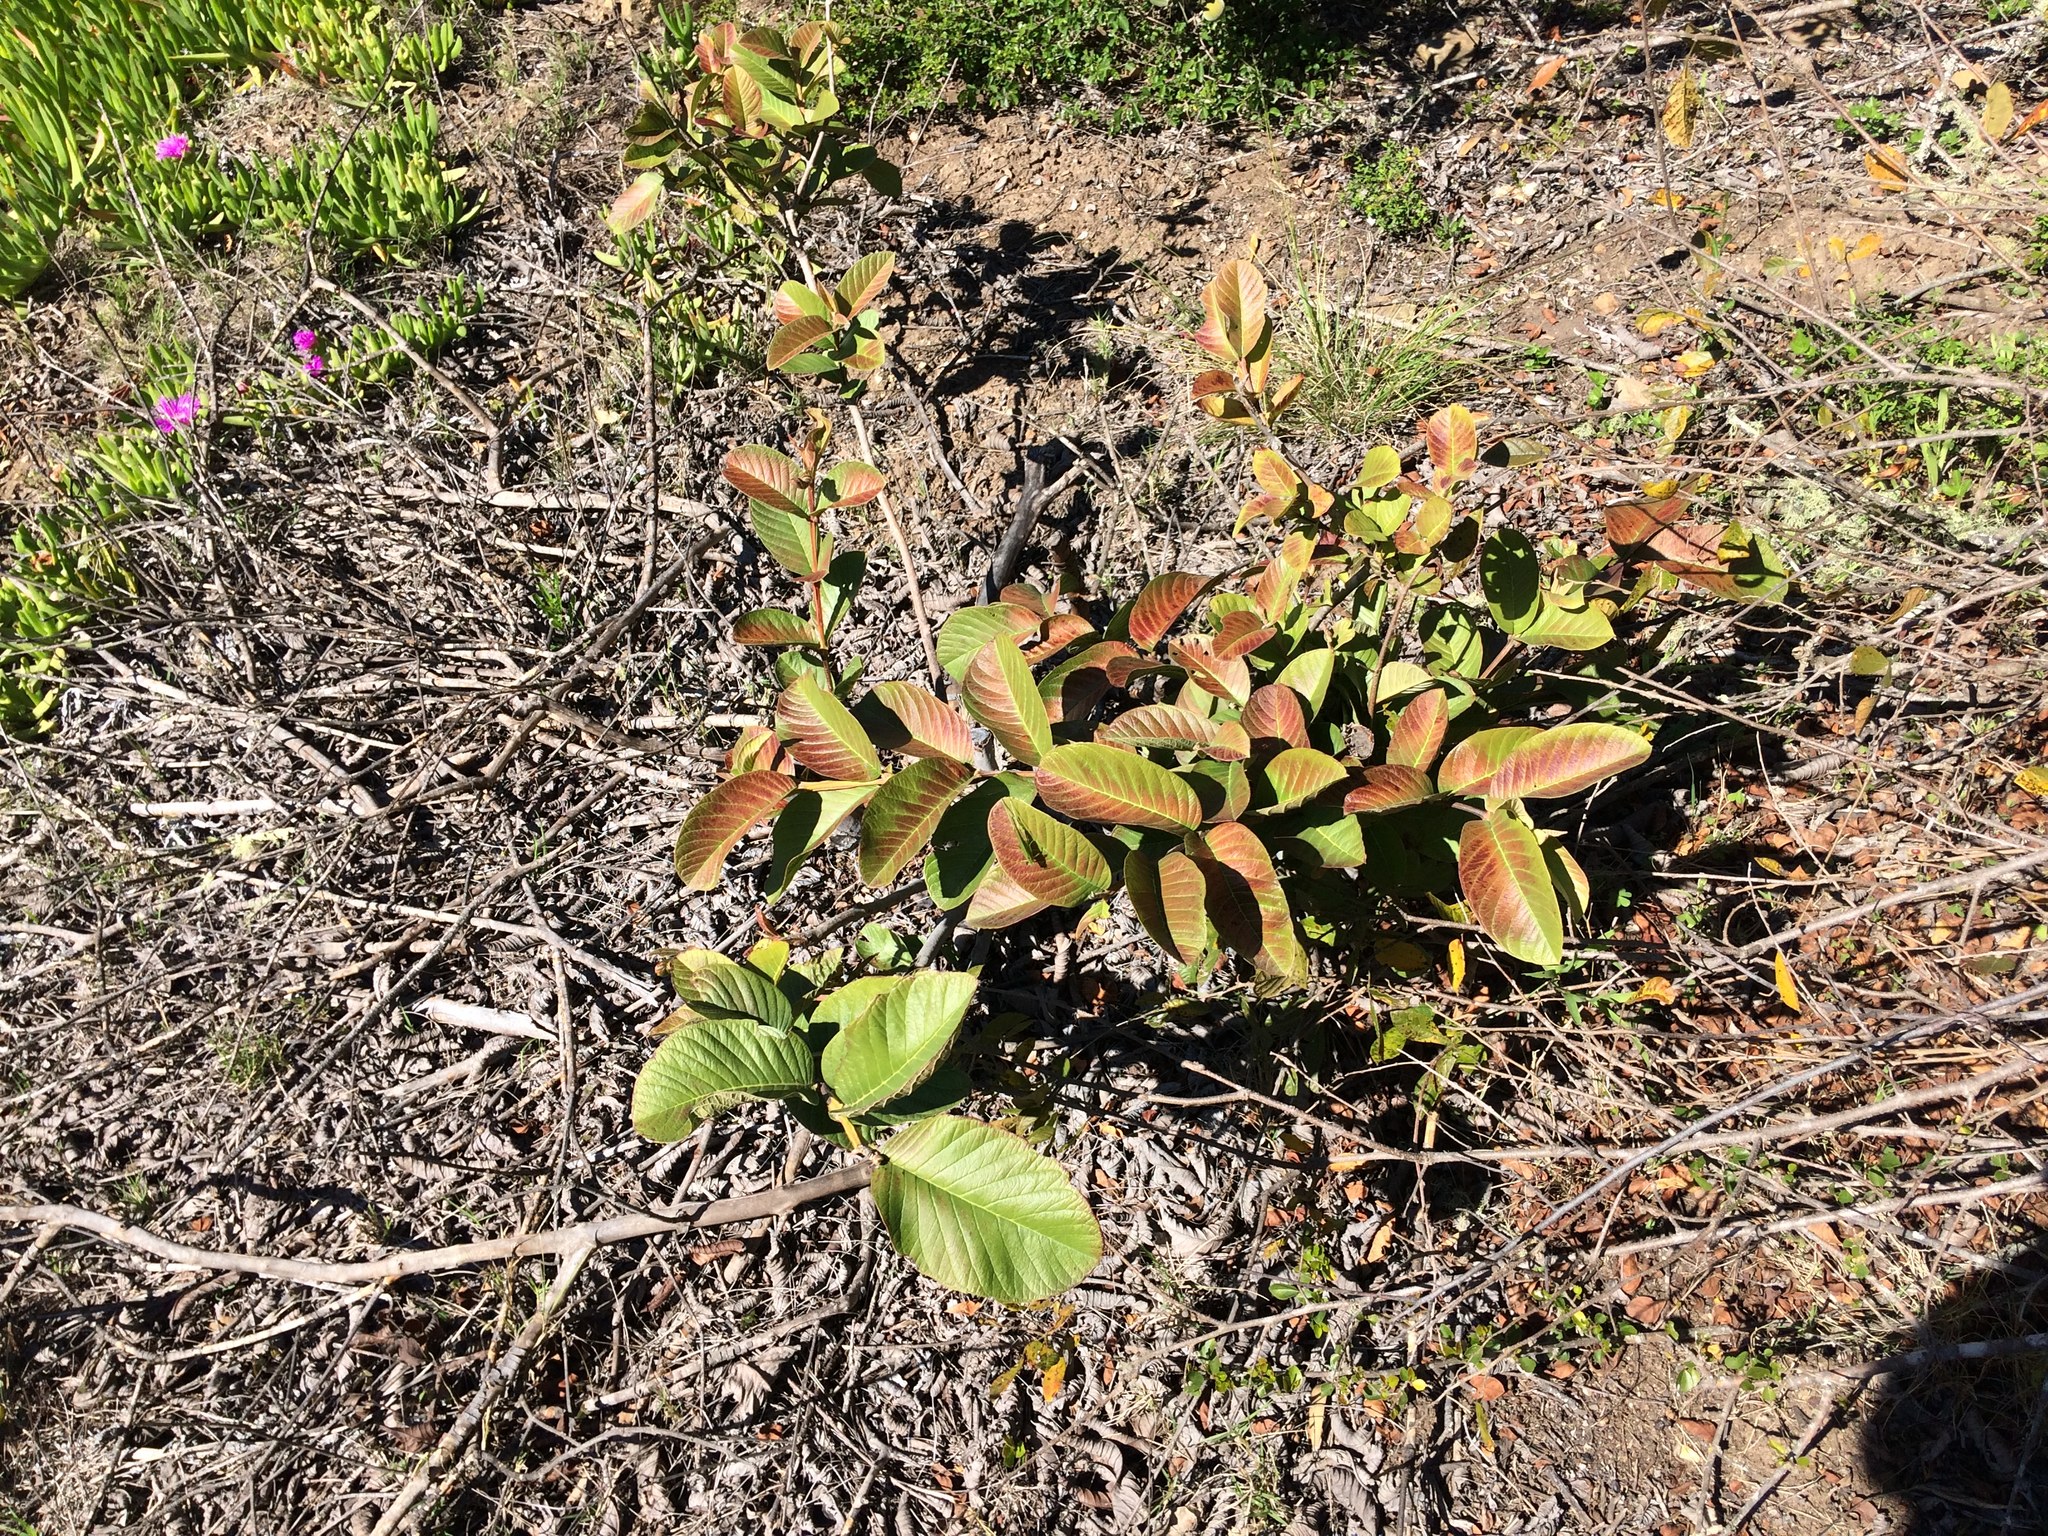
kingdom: Plantae
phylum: Tracheophyta
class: Magnoliopsida
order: Myrtales
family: Myrtaceae
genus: Psidium
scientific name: Psidium guajava
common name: Guava
